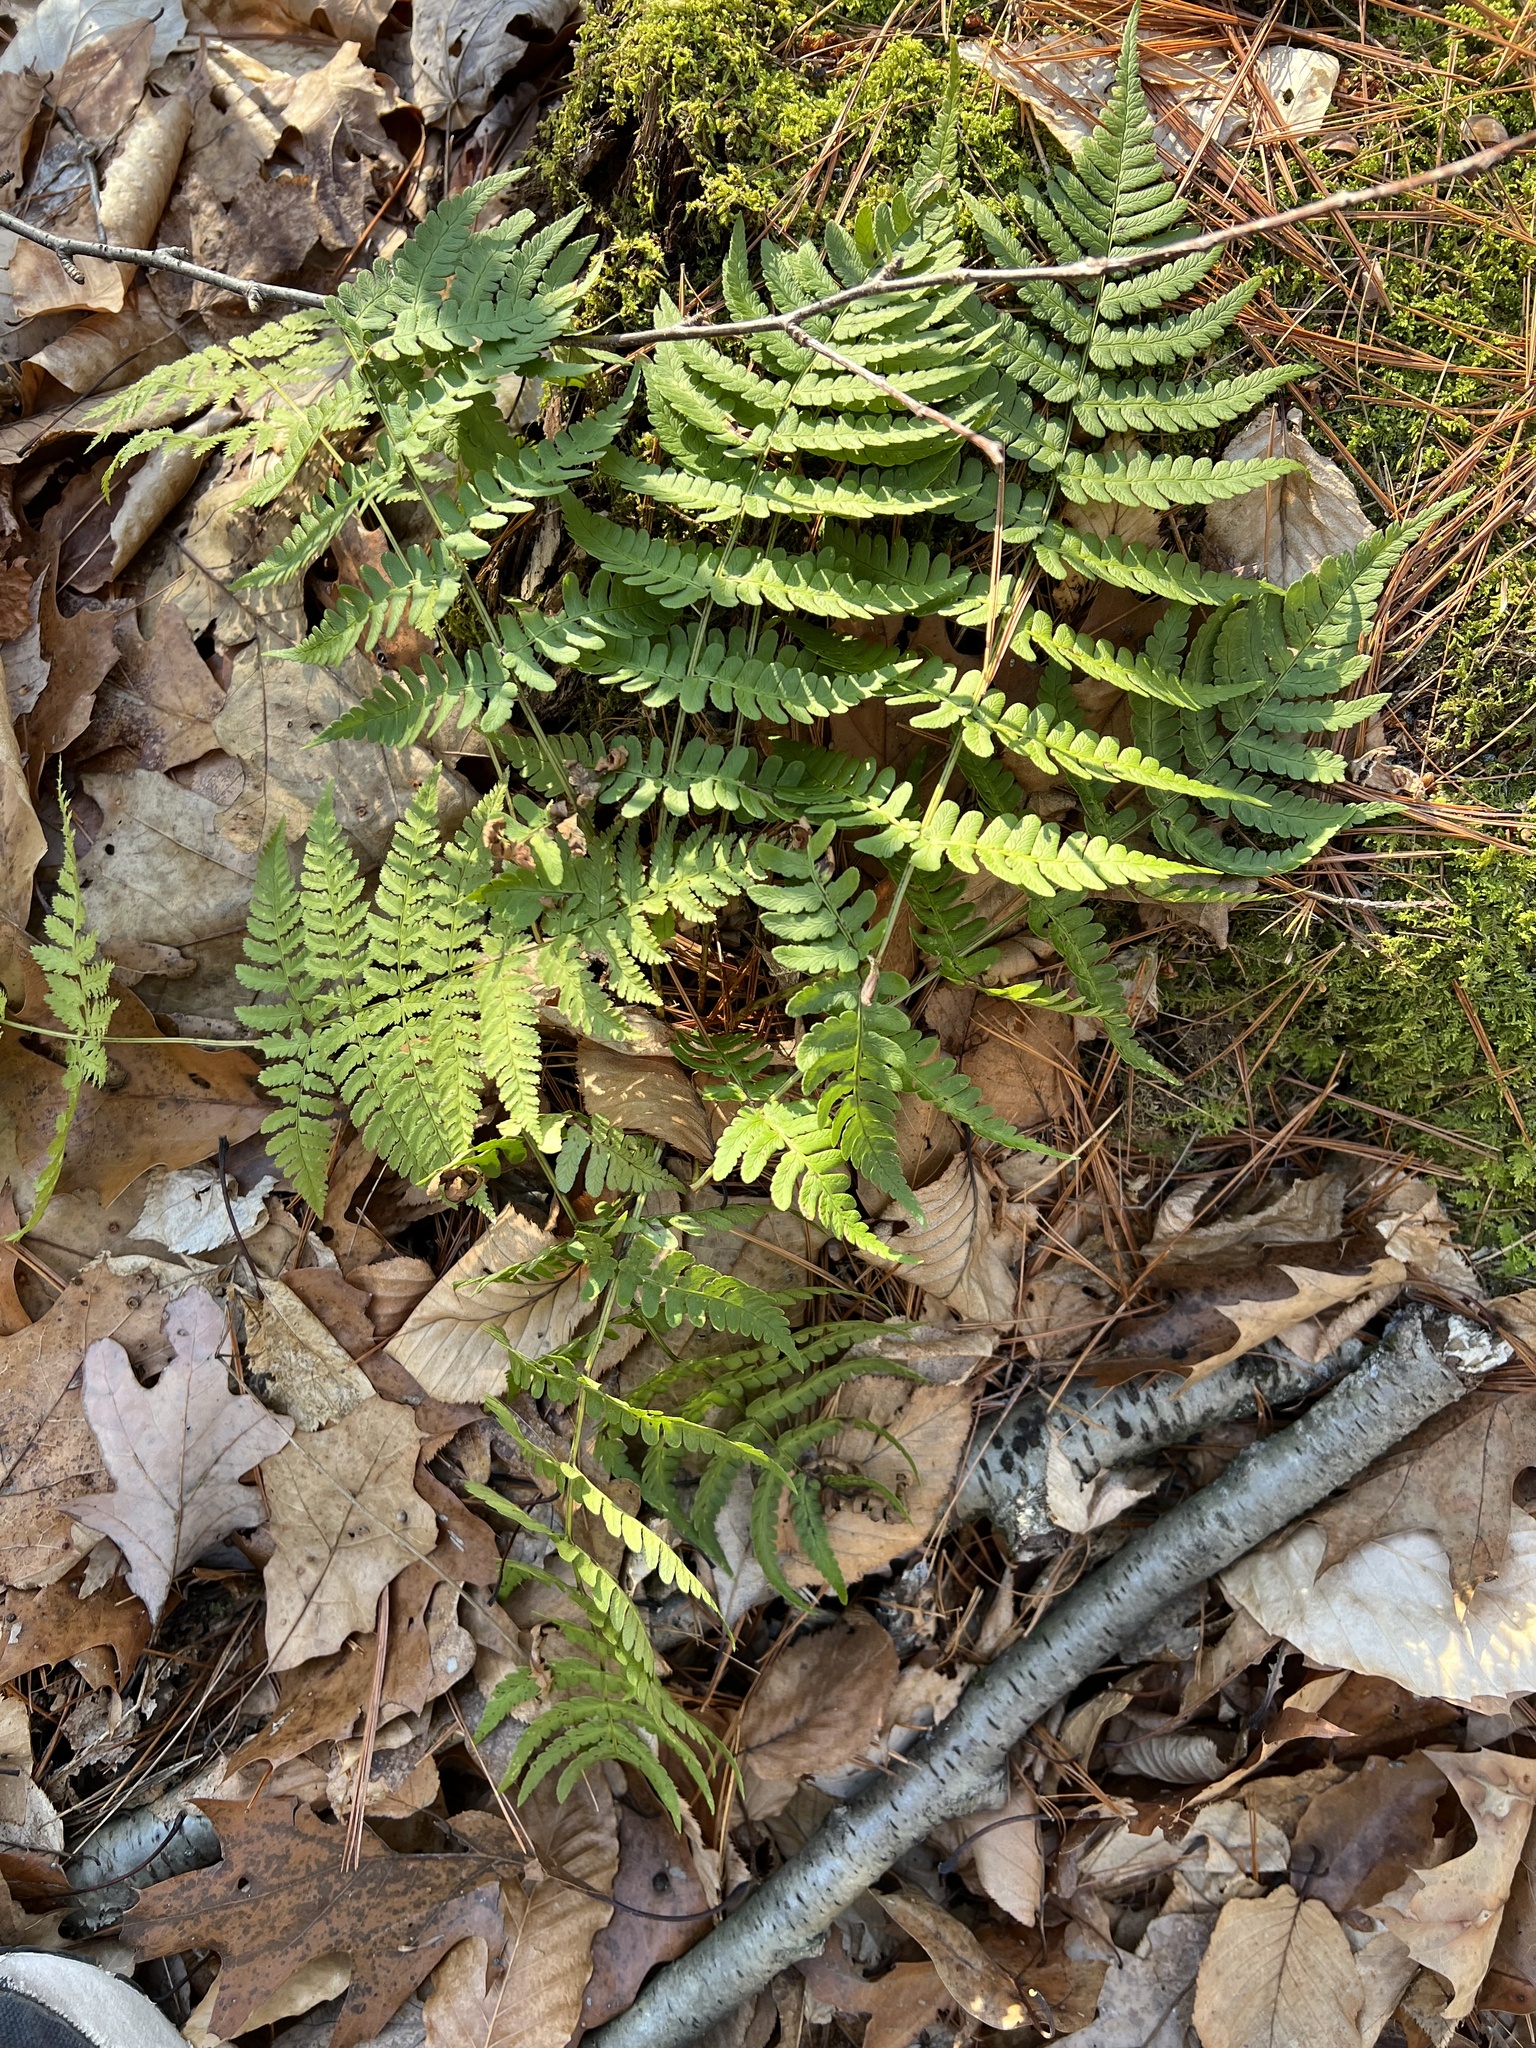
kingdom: Plantae
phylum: Tracheophyta
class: Polypodiopsida
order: Polypodiales
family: Dryopteridaceae
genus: Dryopteris
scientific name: Dryopteris marginalis
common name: Marginal wood fern
